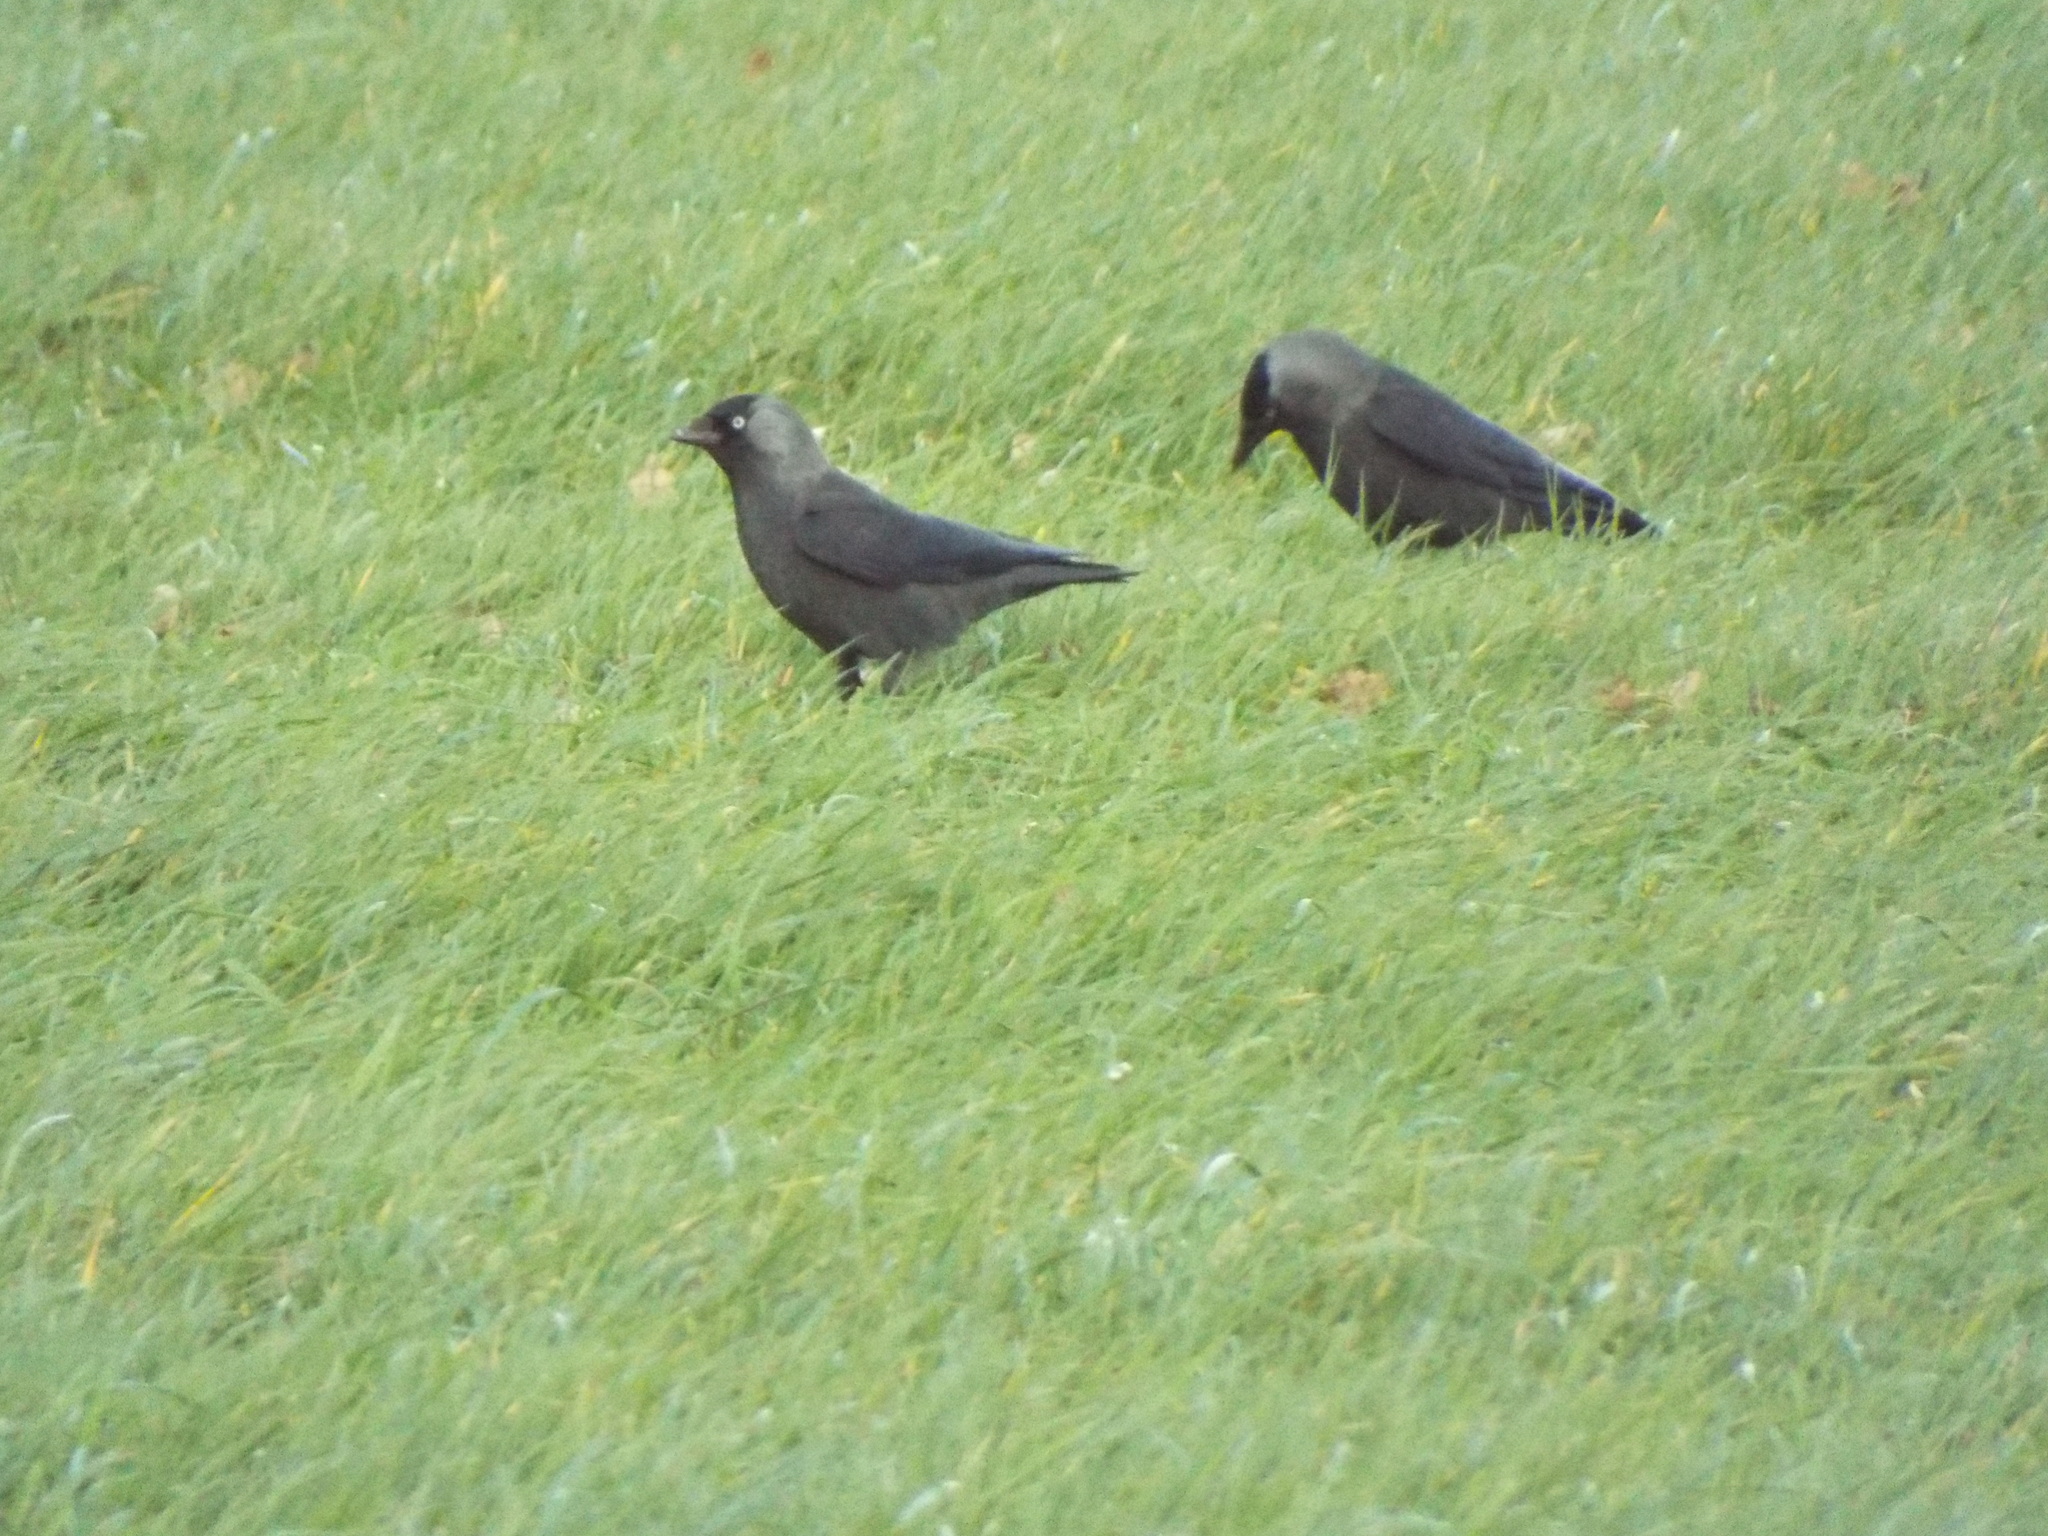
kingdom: Animalia
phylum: Chordata
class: Aves
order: Passeriformes
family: Corvidae
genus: Coloeus
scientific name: Coloeus monedula
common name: Western jackdaw
